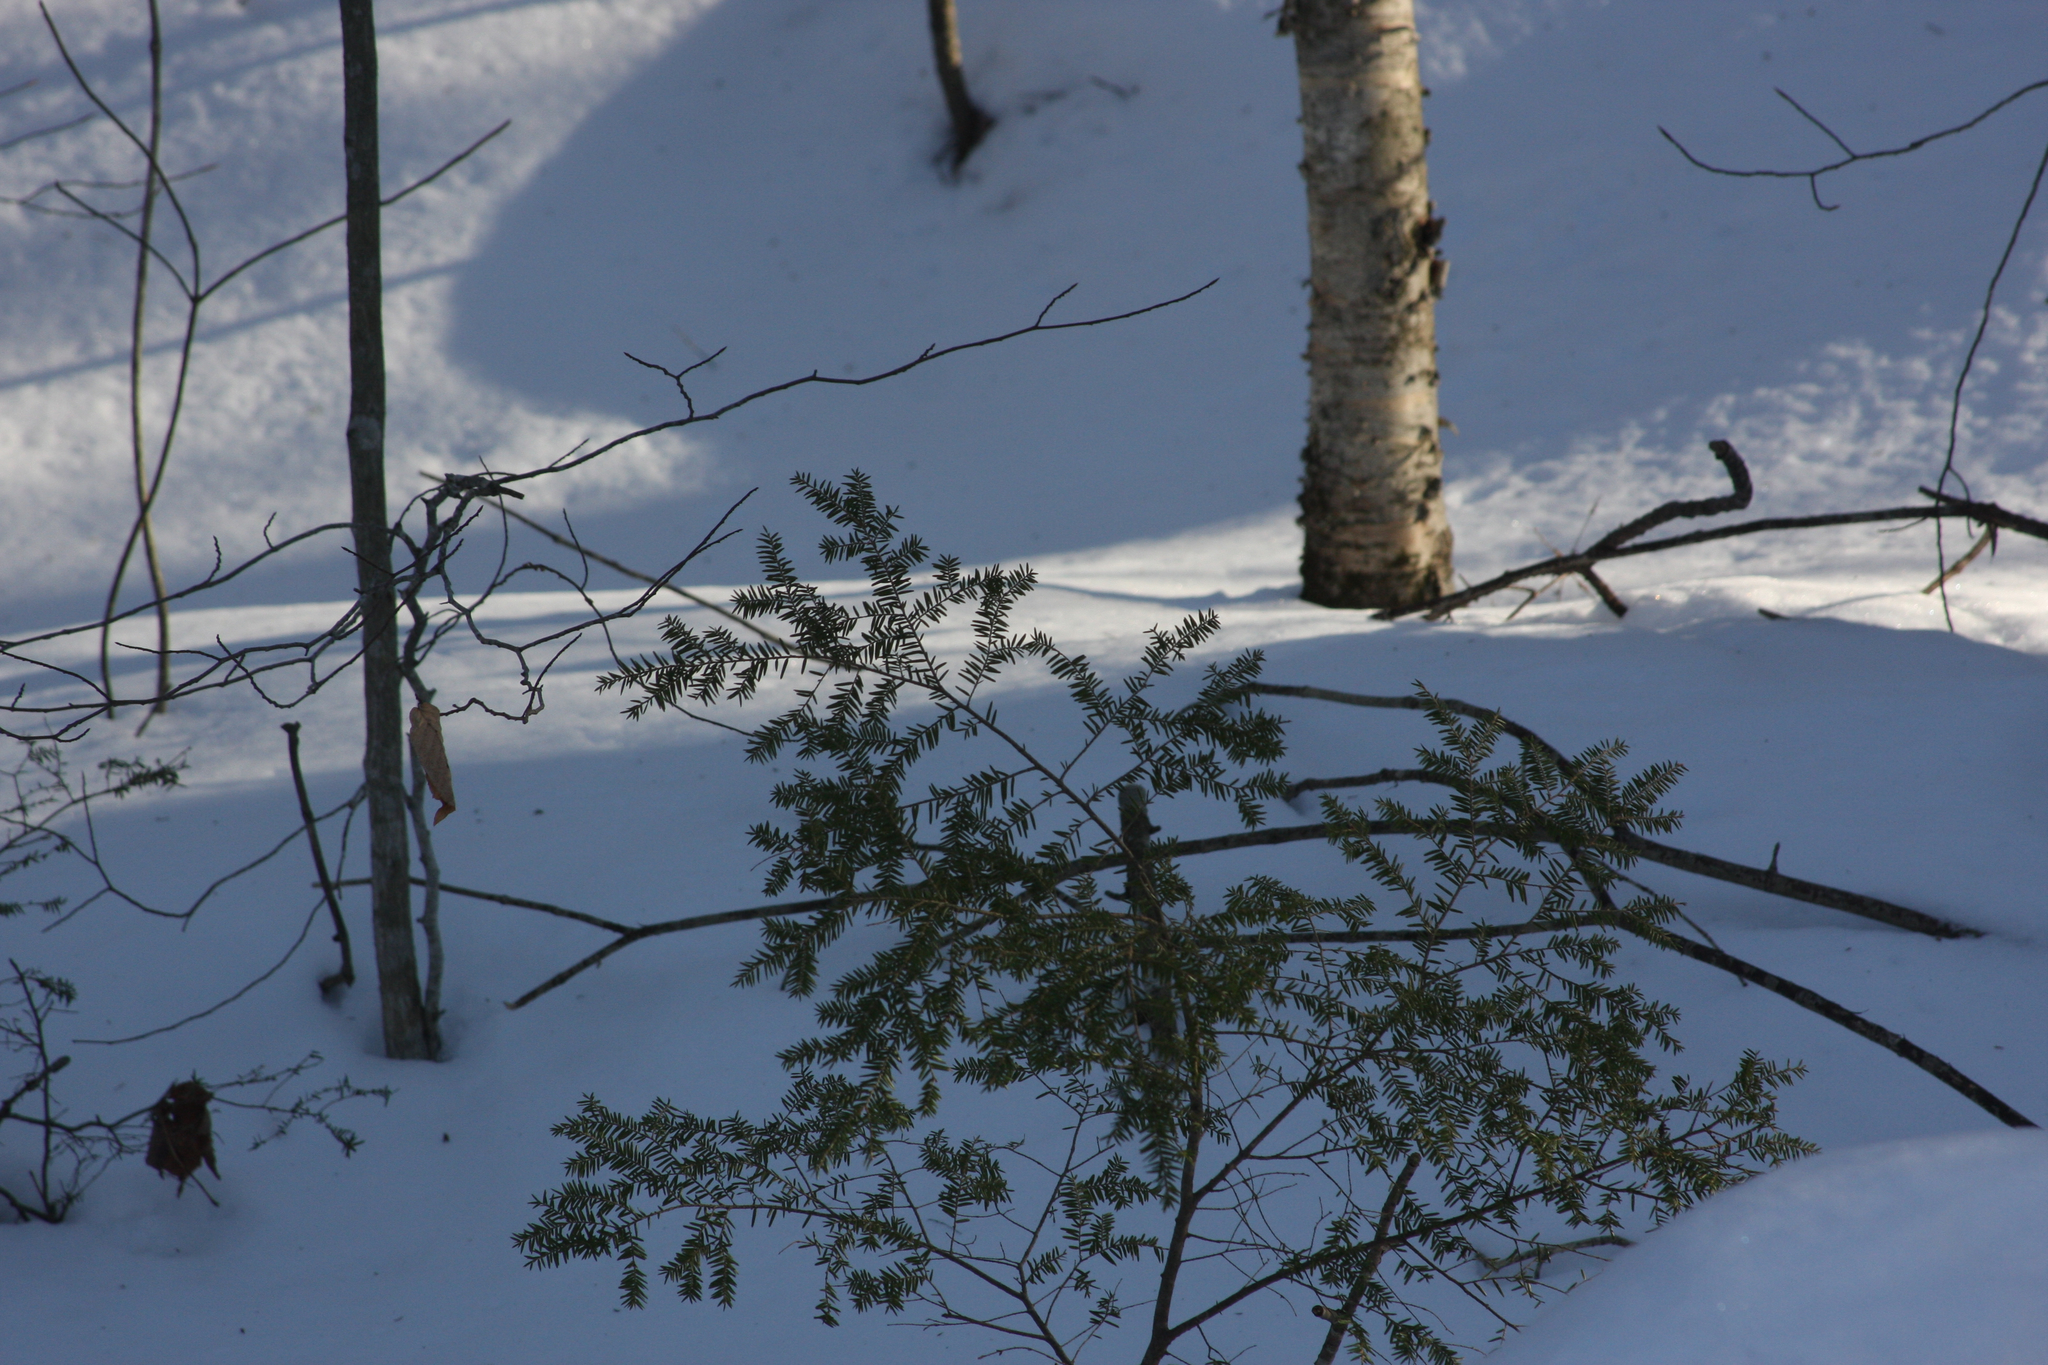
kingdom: Plantae
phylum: Tracheophyta
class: Pinopsida
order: Pinales
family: Pinaceae
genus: Tsuga
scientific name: Tsuga canadensis
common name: Eastern hemlock
